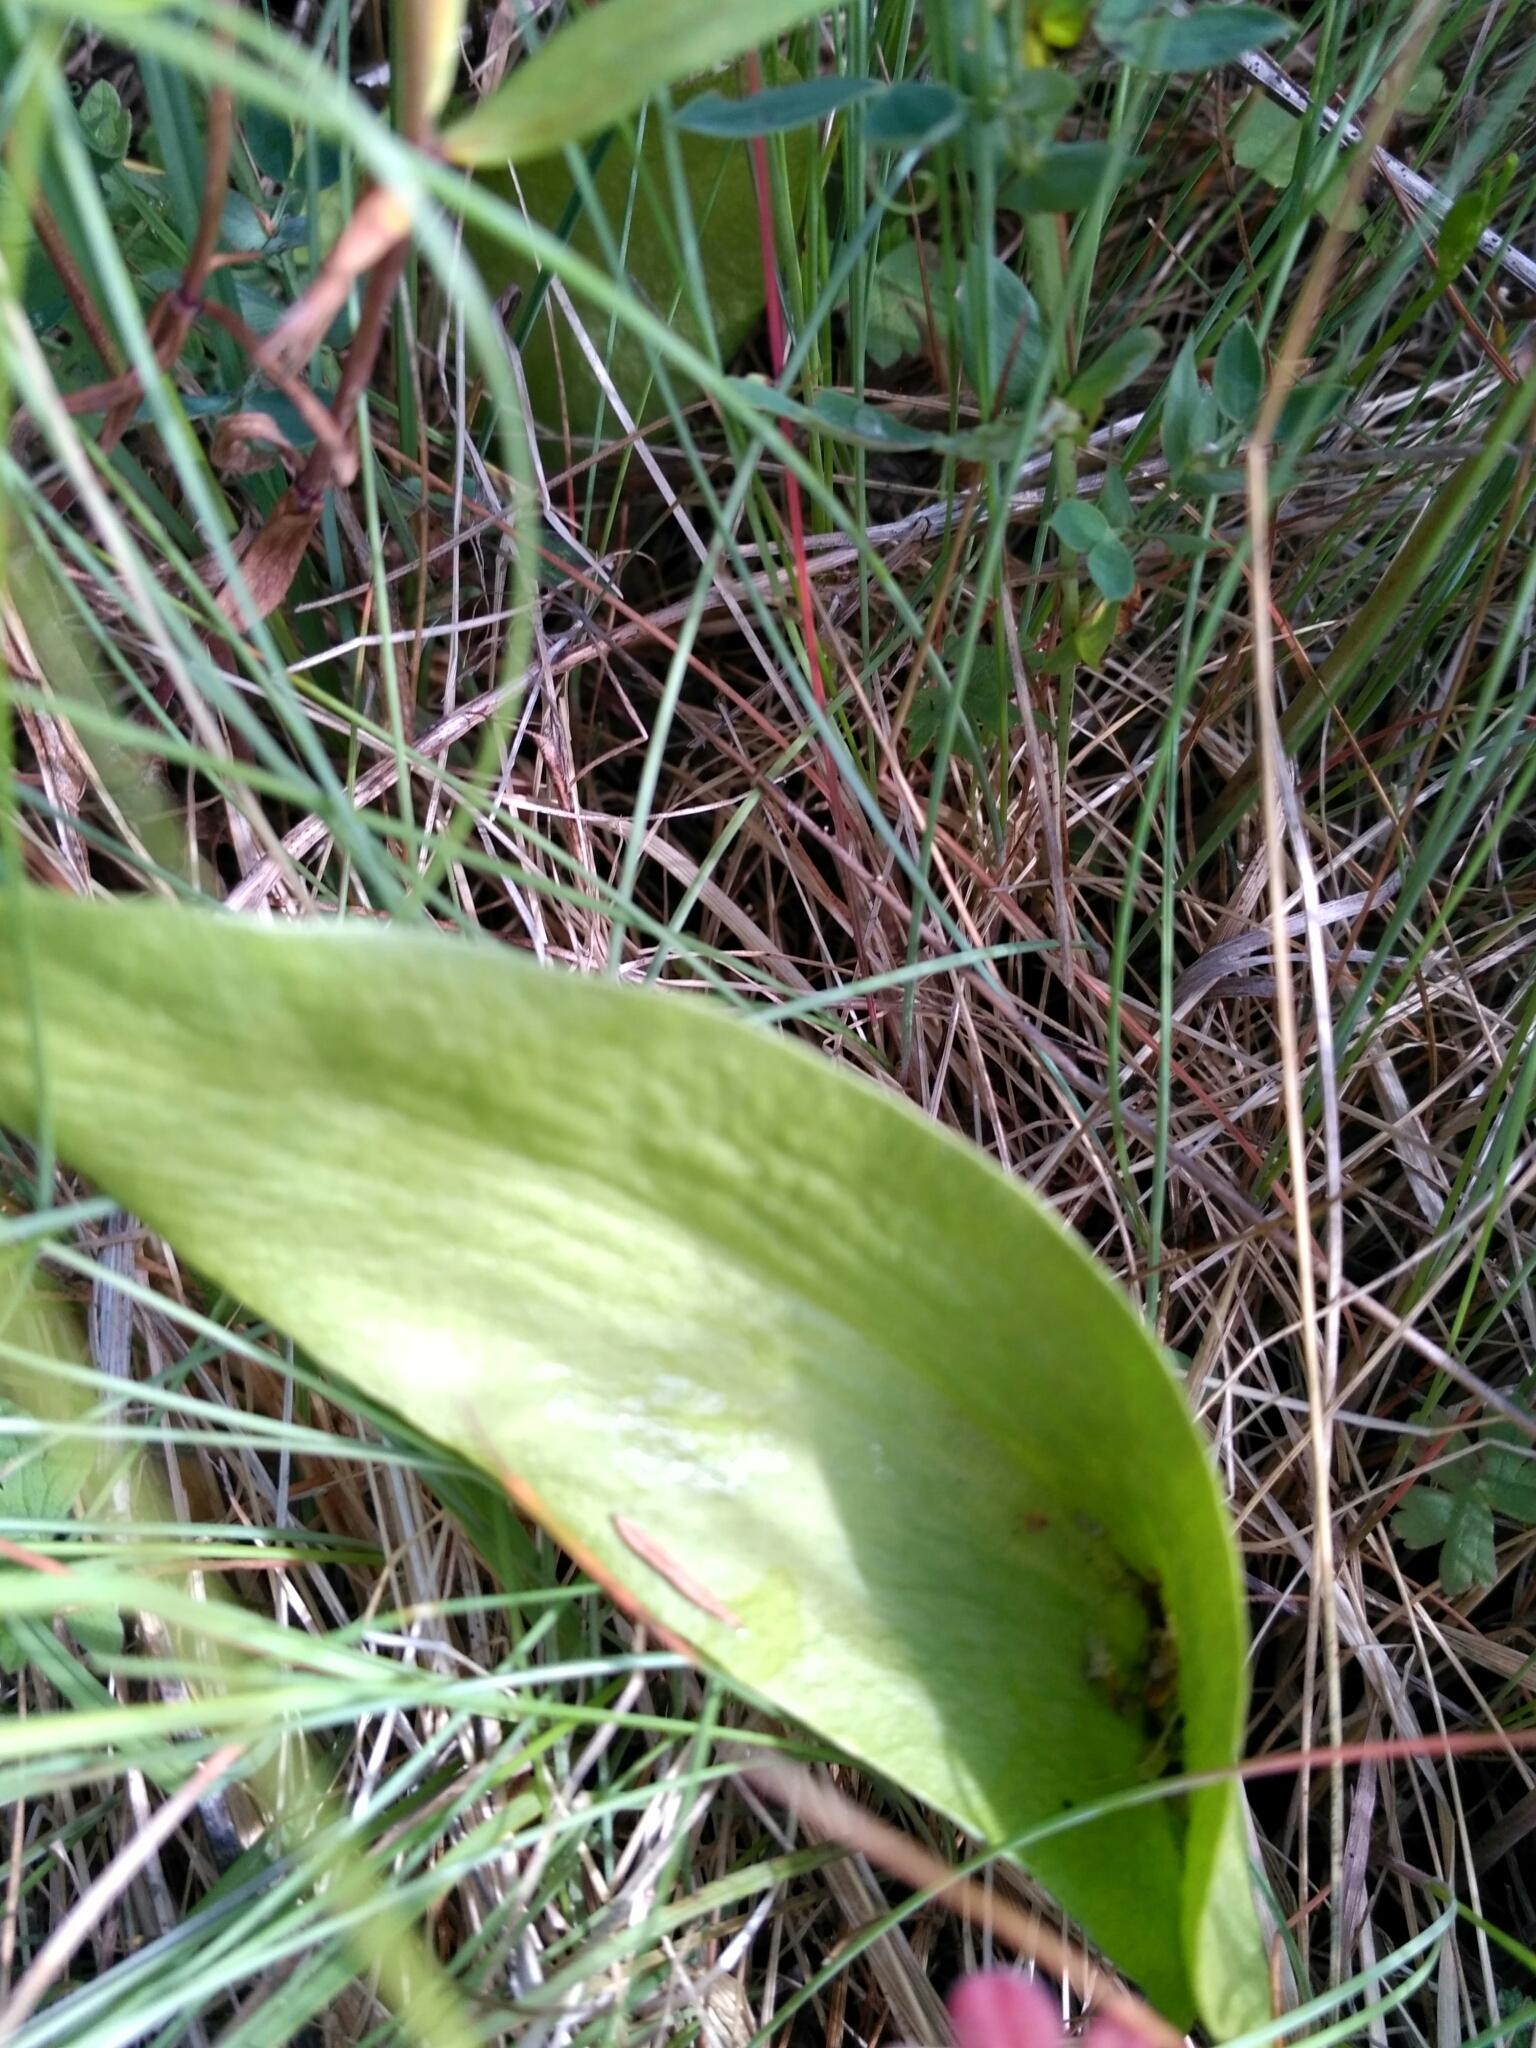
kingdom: Plantae
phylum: Tracheophyta
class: Polypodiopsida
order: Ophioglossales
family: Ophioglossaceae
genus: Ophioglossum
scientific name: Ophioglossum vulgatum
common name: Adder's-tongue
